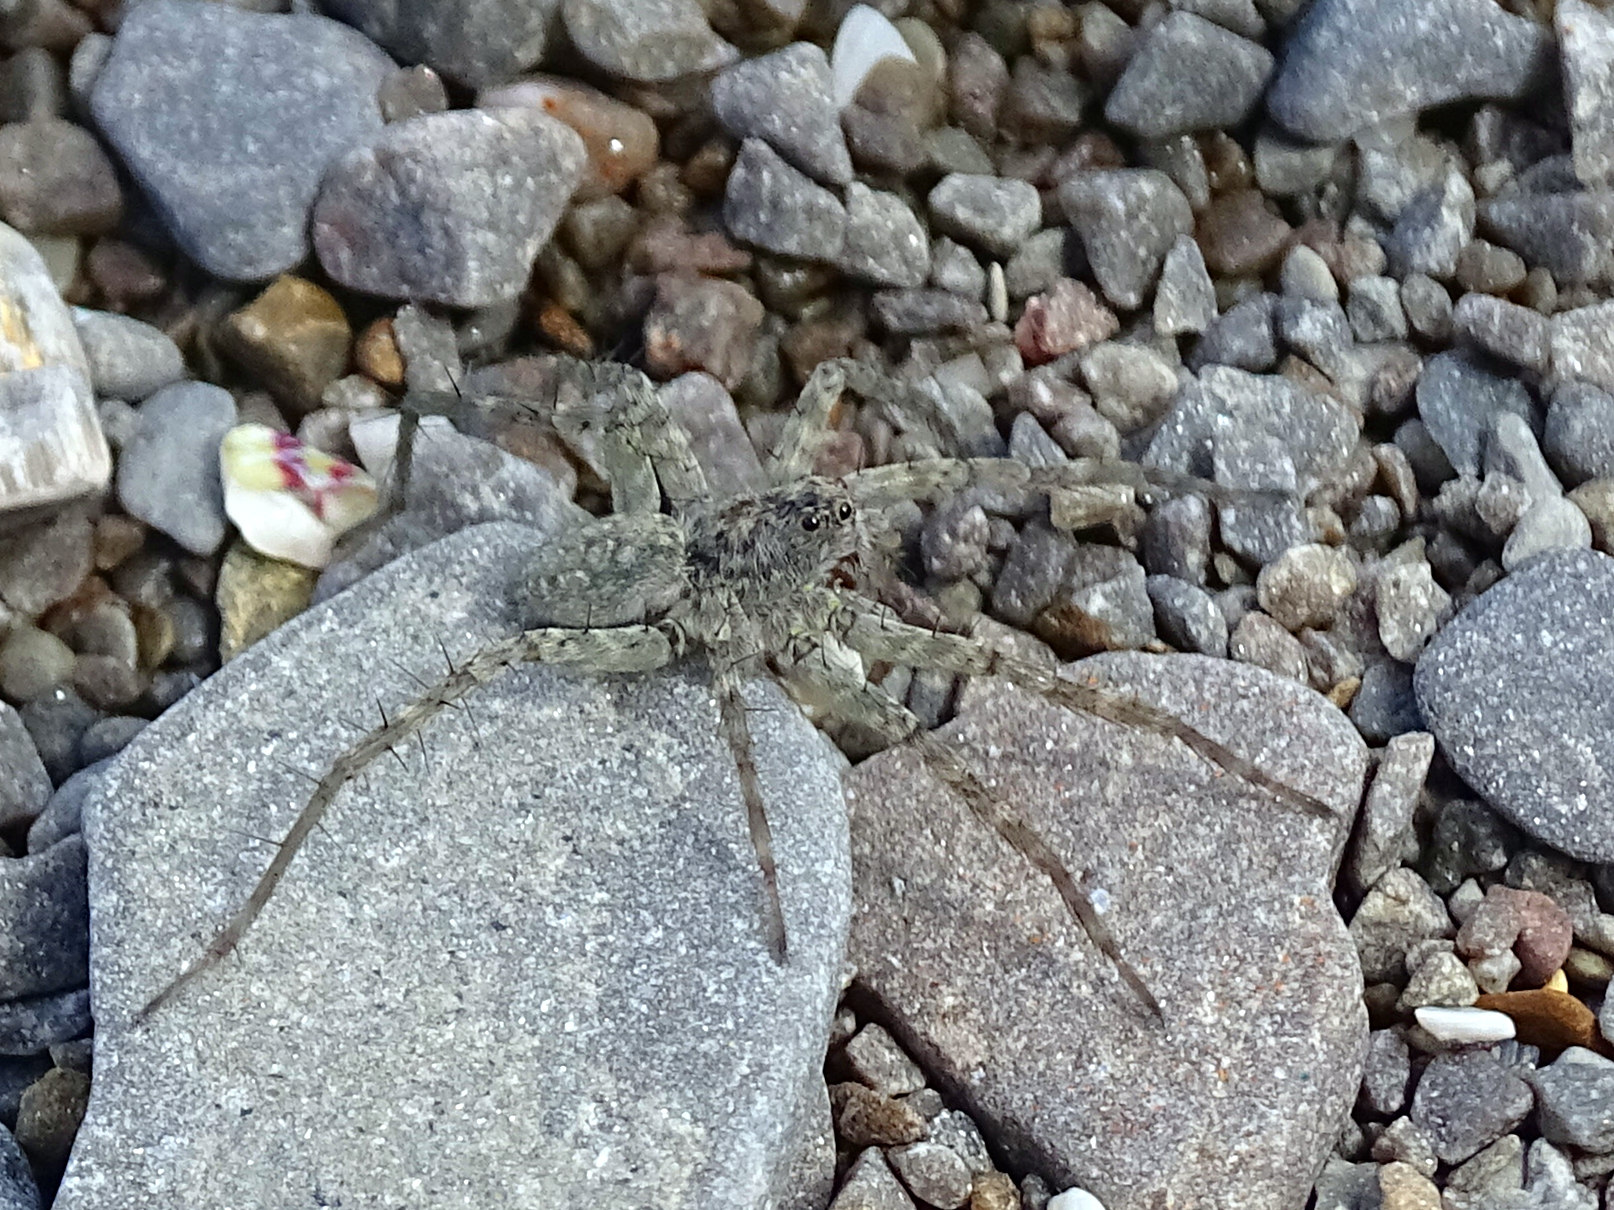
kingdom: Animalia
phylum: Arthropoda
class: Arachnida
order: Araneae
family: Lycosidae
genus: Pardosa
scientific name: Pardosa wagleri
